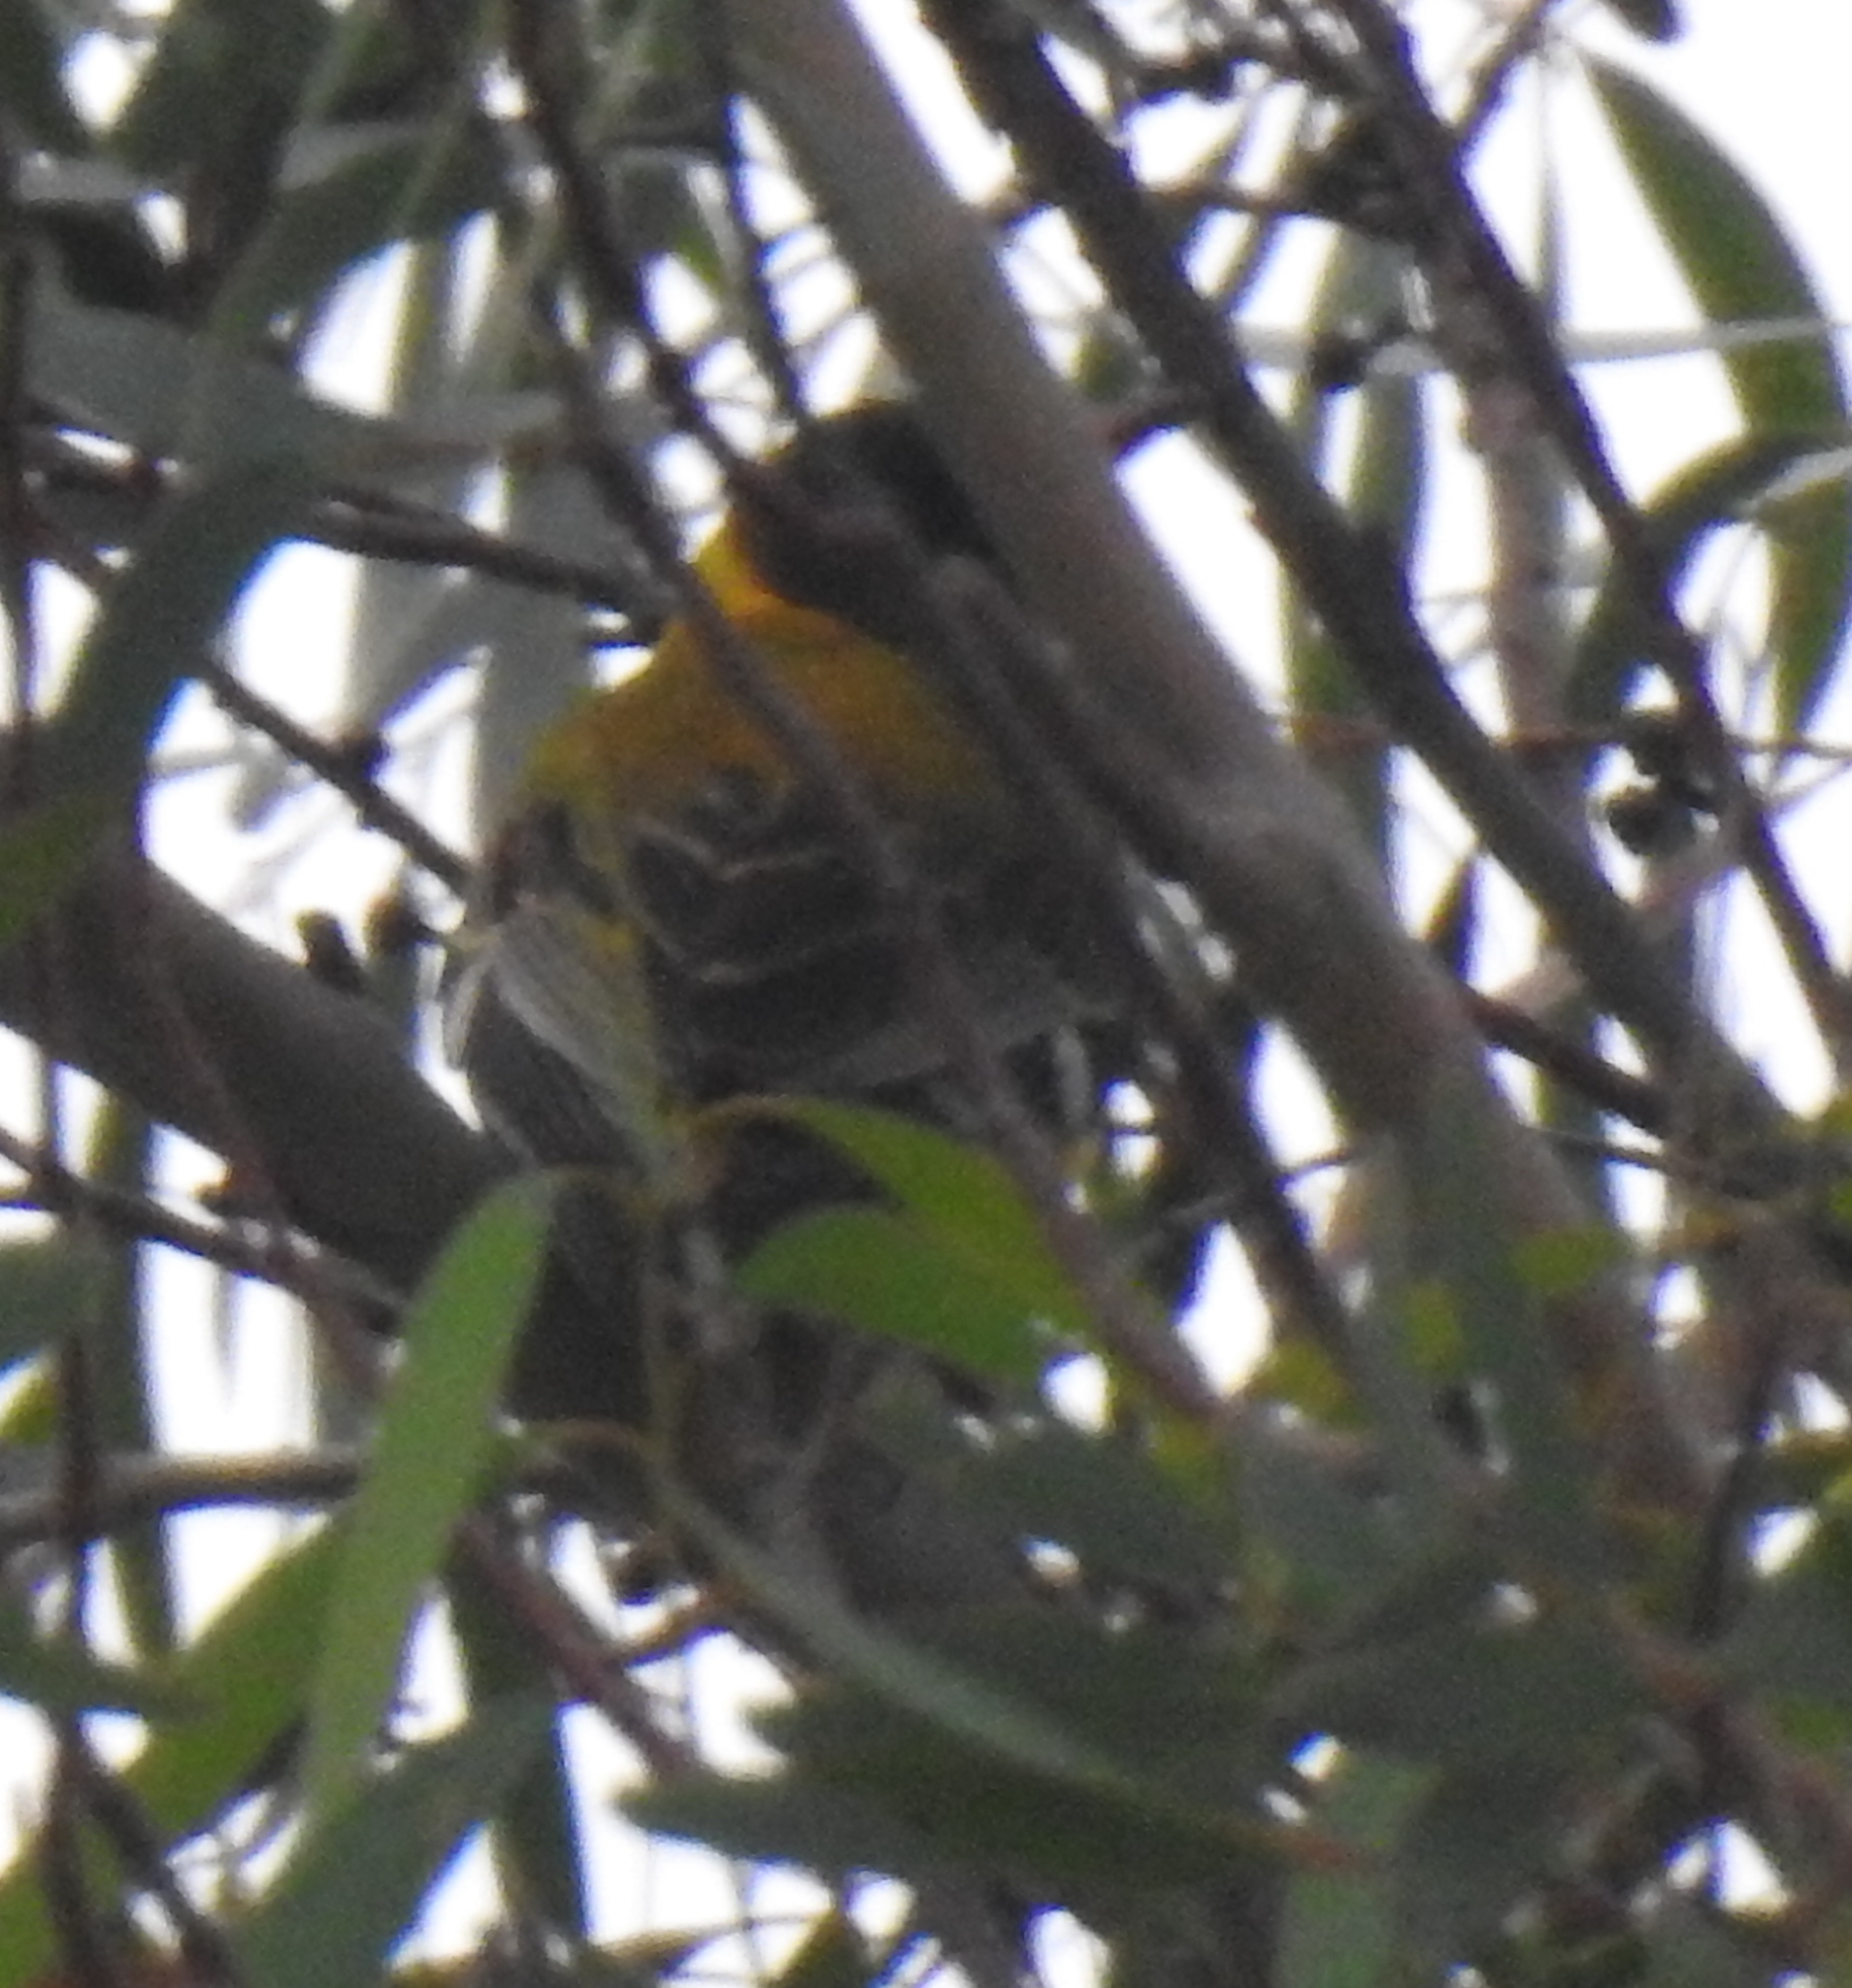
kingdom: Animalia
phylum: Chordata
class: Aves
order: Passeriformes
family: Oriolidae
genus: Oriolus
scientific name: Oriolus larvatus
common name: Black-headed oriole
